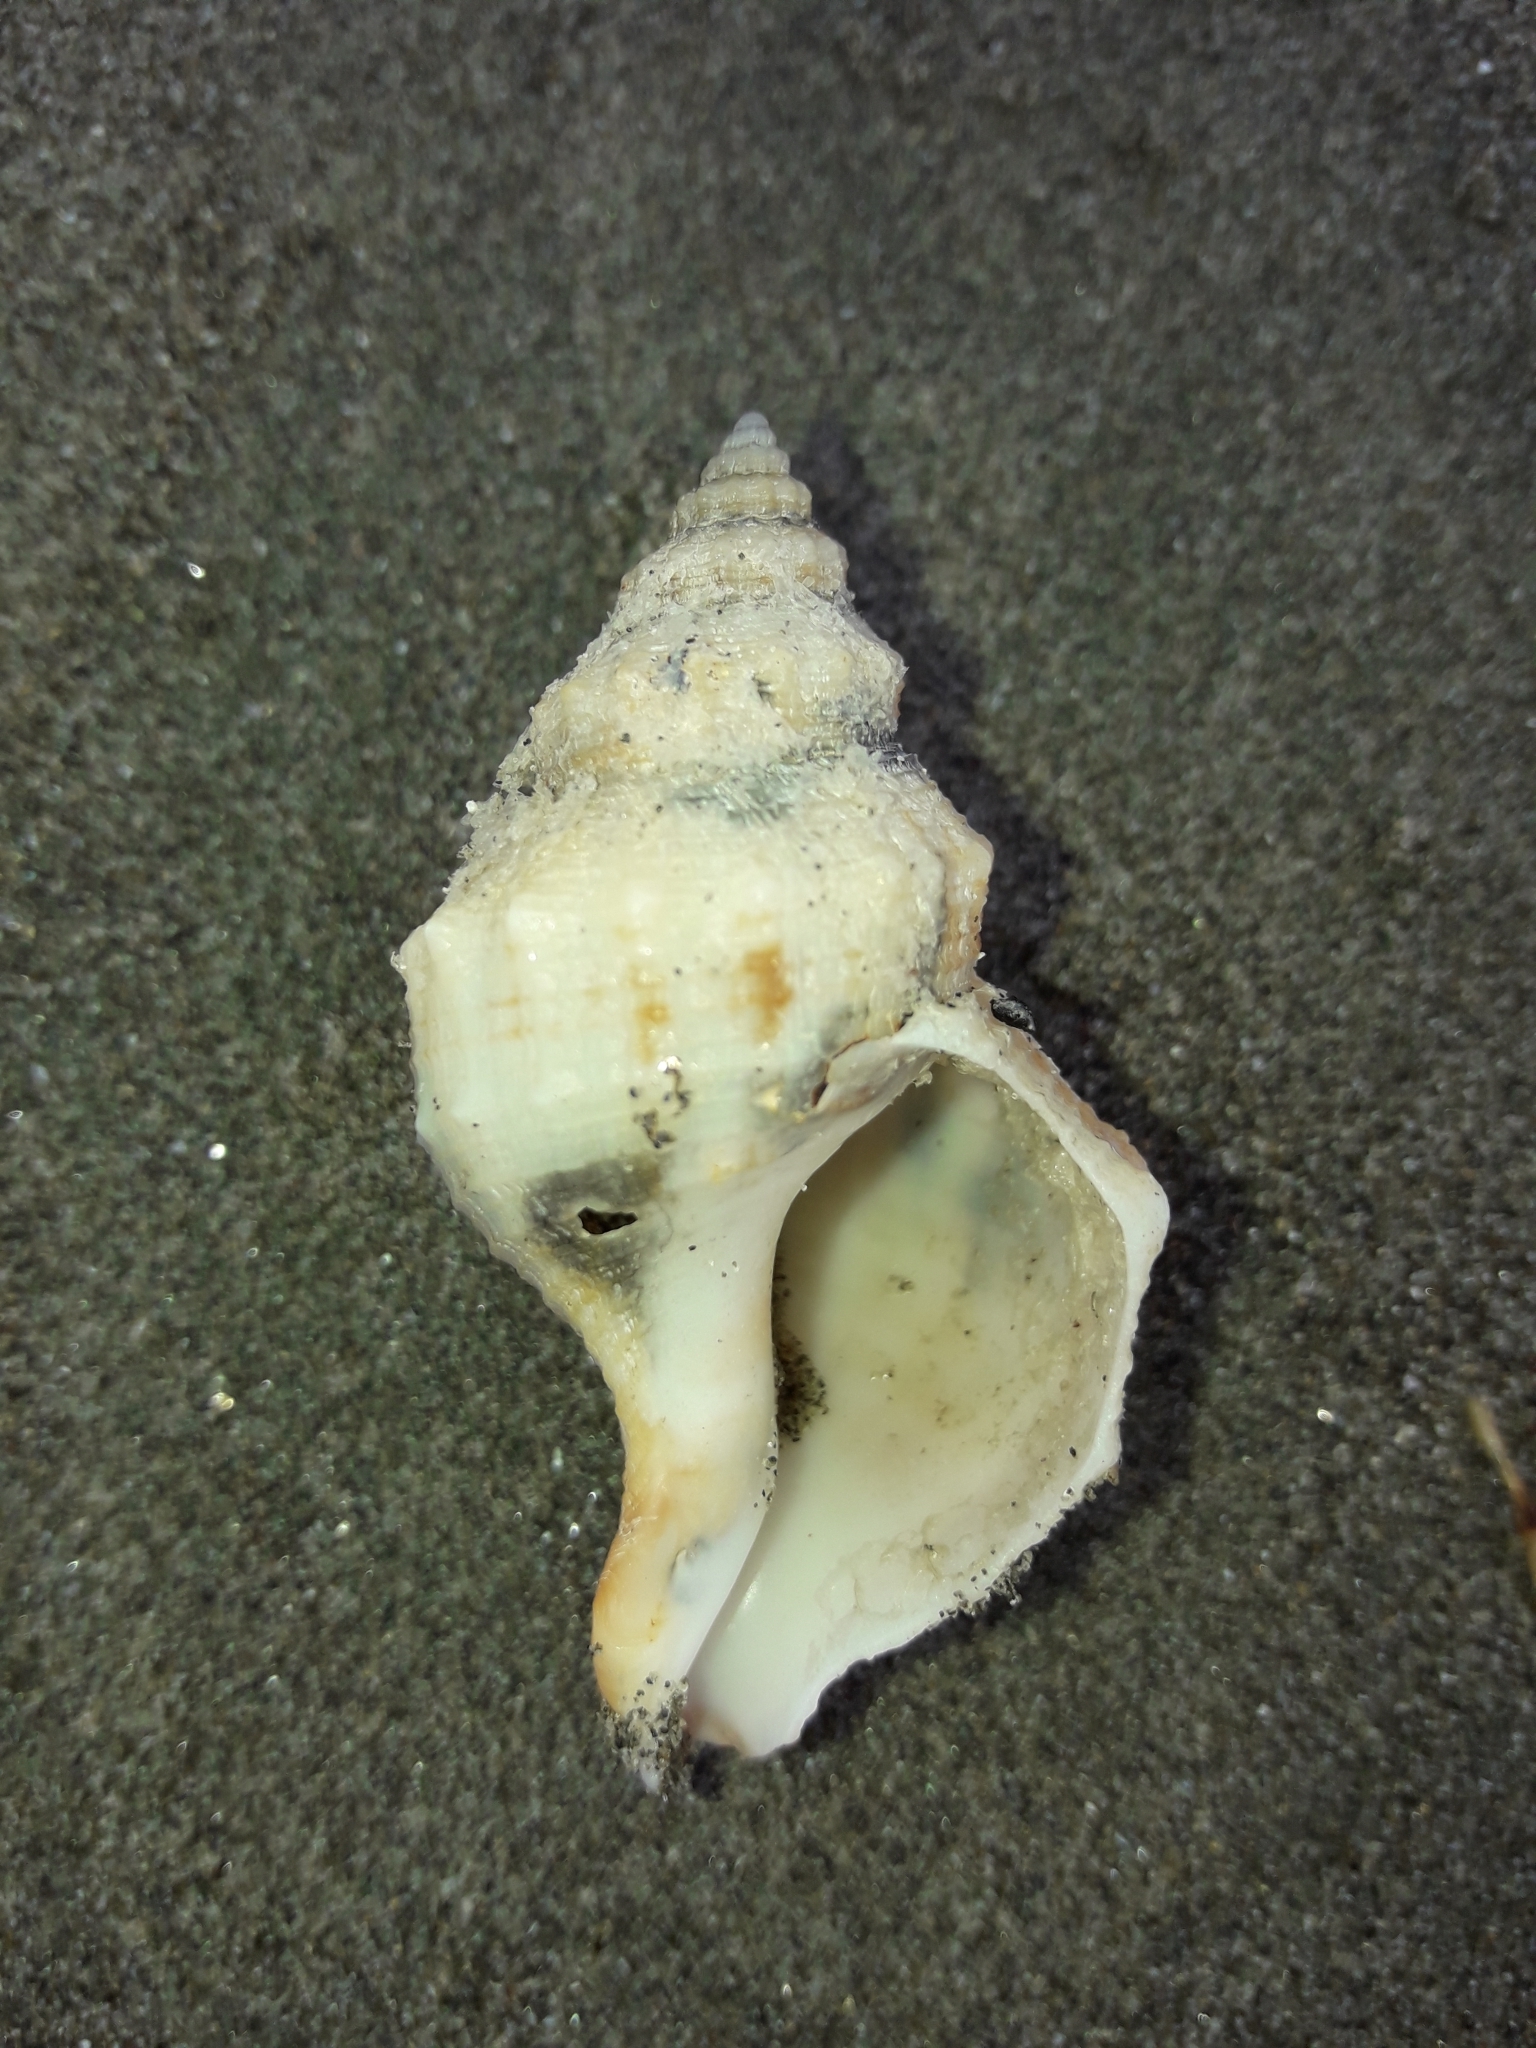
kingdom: Animalia
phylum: Mollusca
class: Gastropoda
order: Neogastropoda
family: Prosiphonidae
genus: Austrofusus
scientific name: Austrofusus glans
